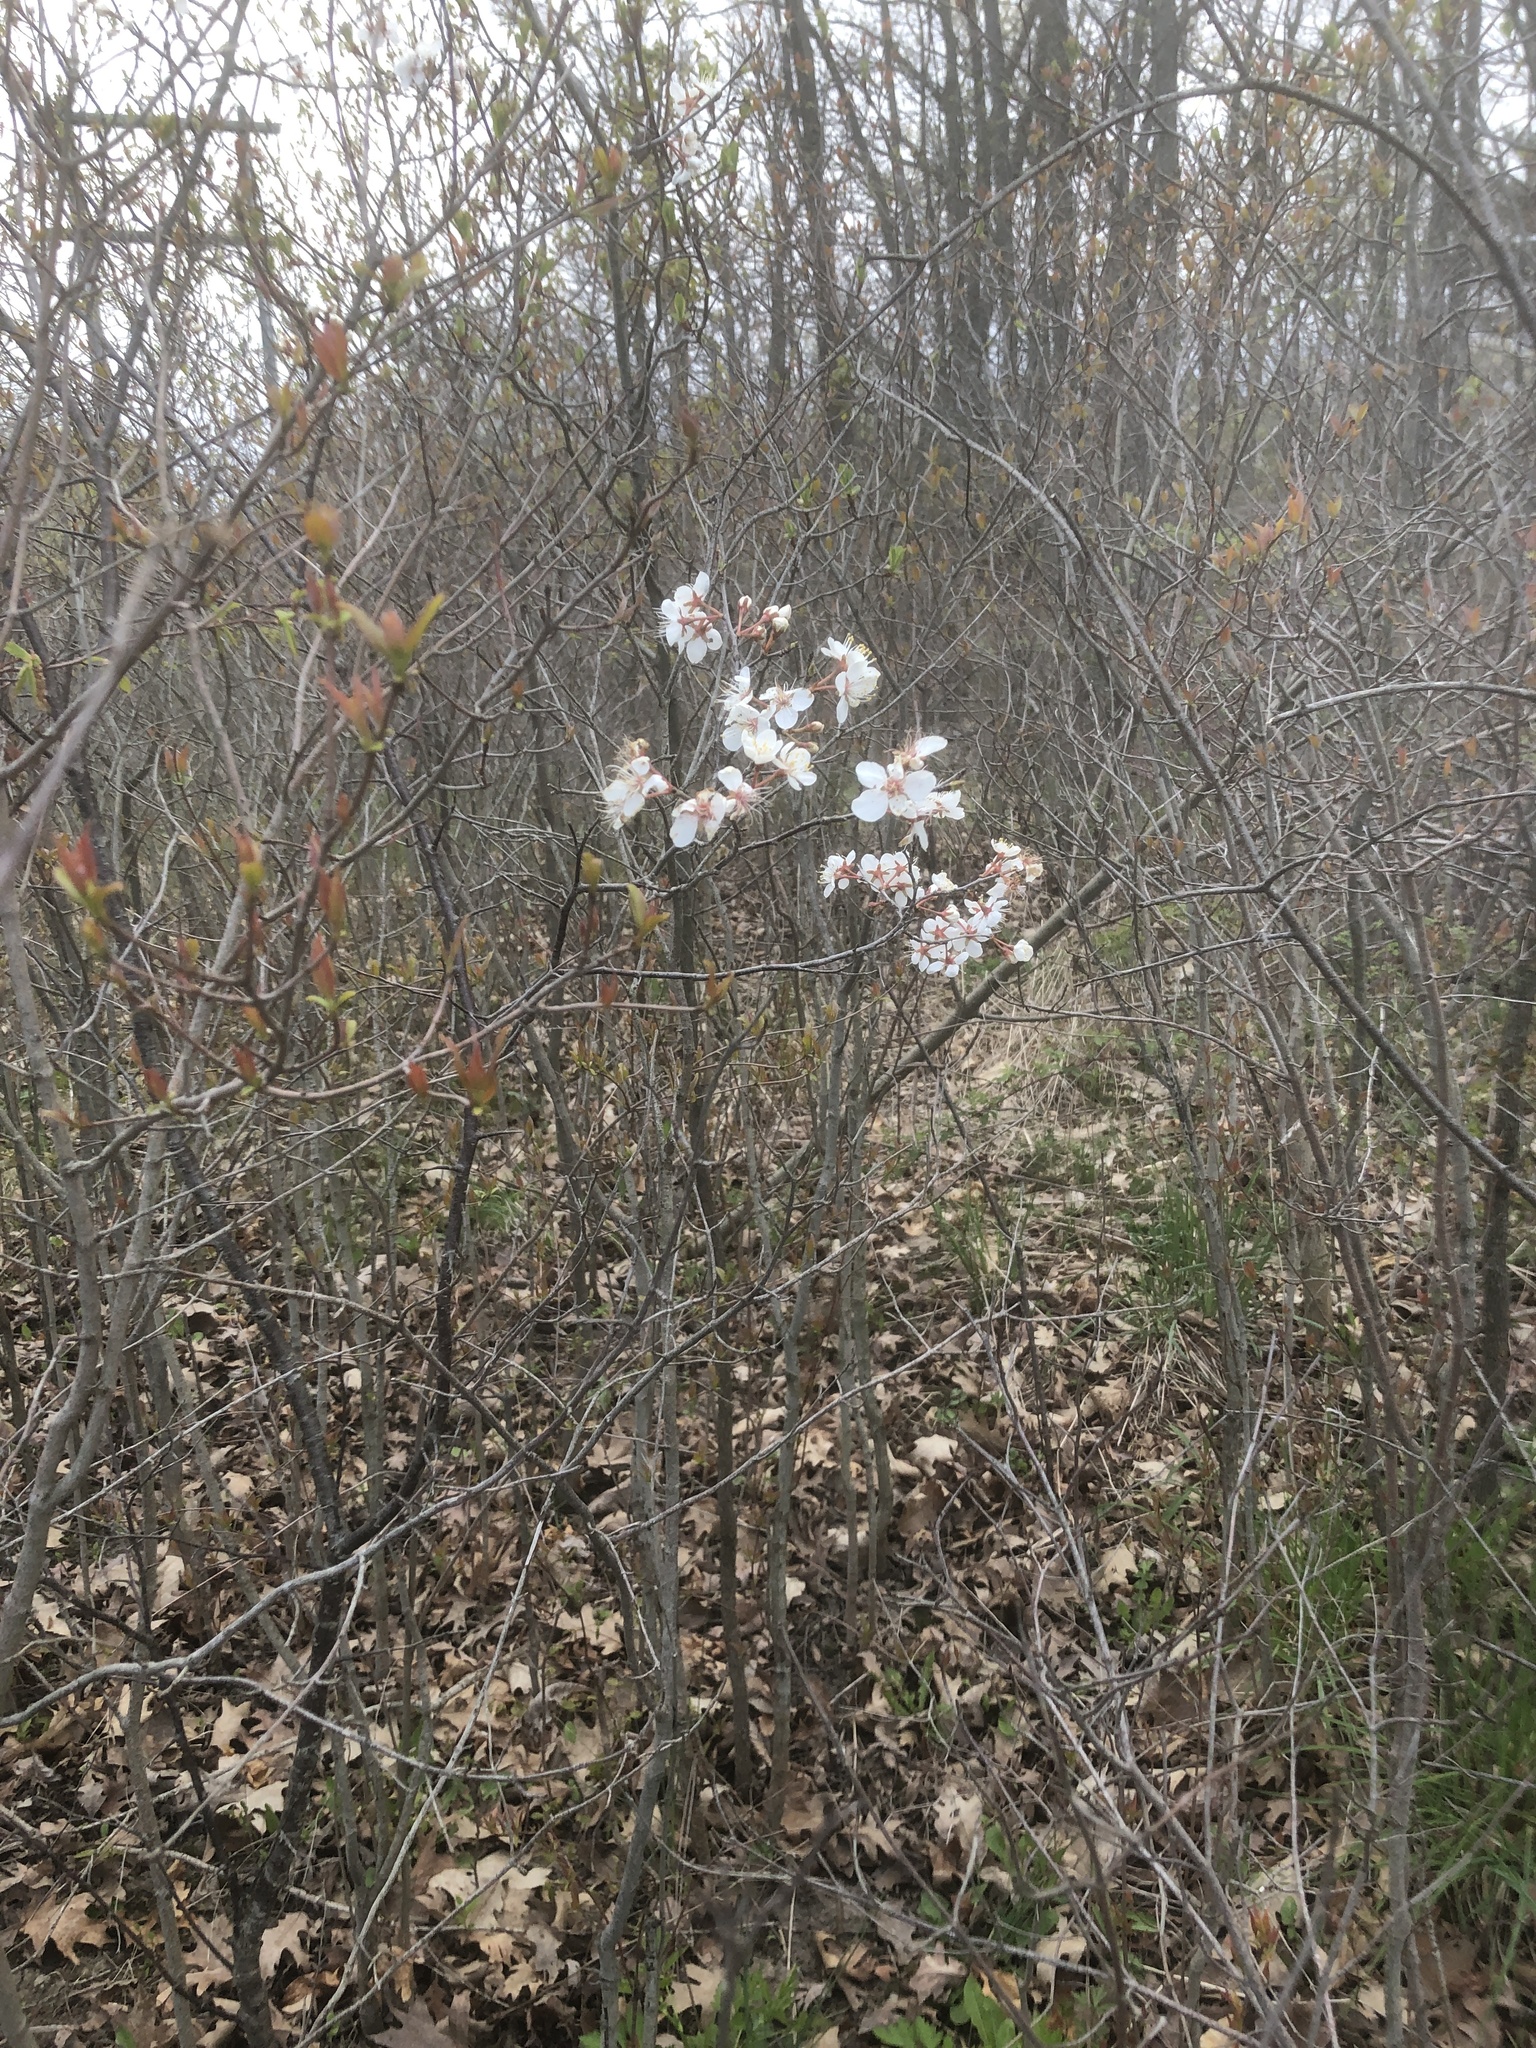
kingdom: Plantae
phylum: Tracheophyta
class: Magnoliopsida
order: Rosales
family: Rosaceae
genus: Prunus
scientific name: Prunus nigra
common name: Black plum
